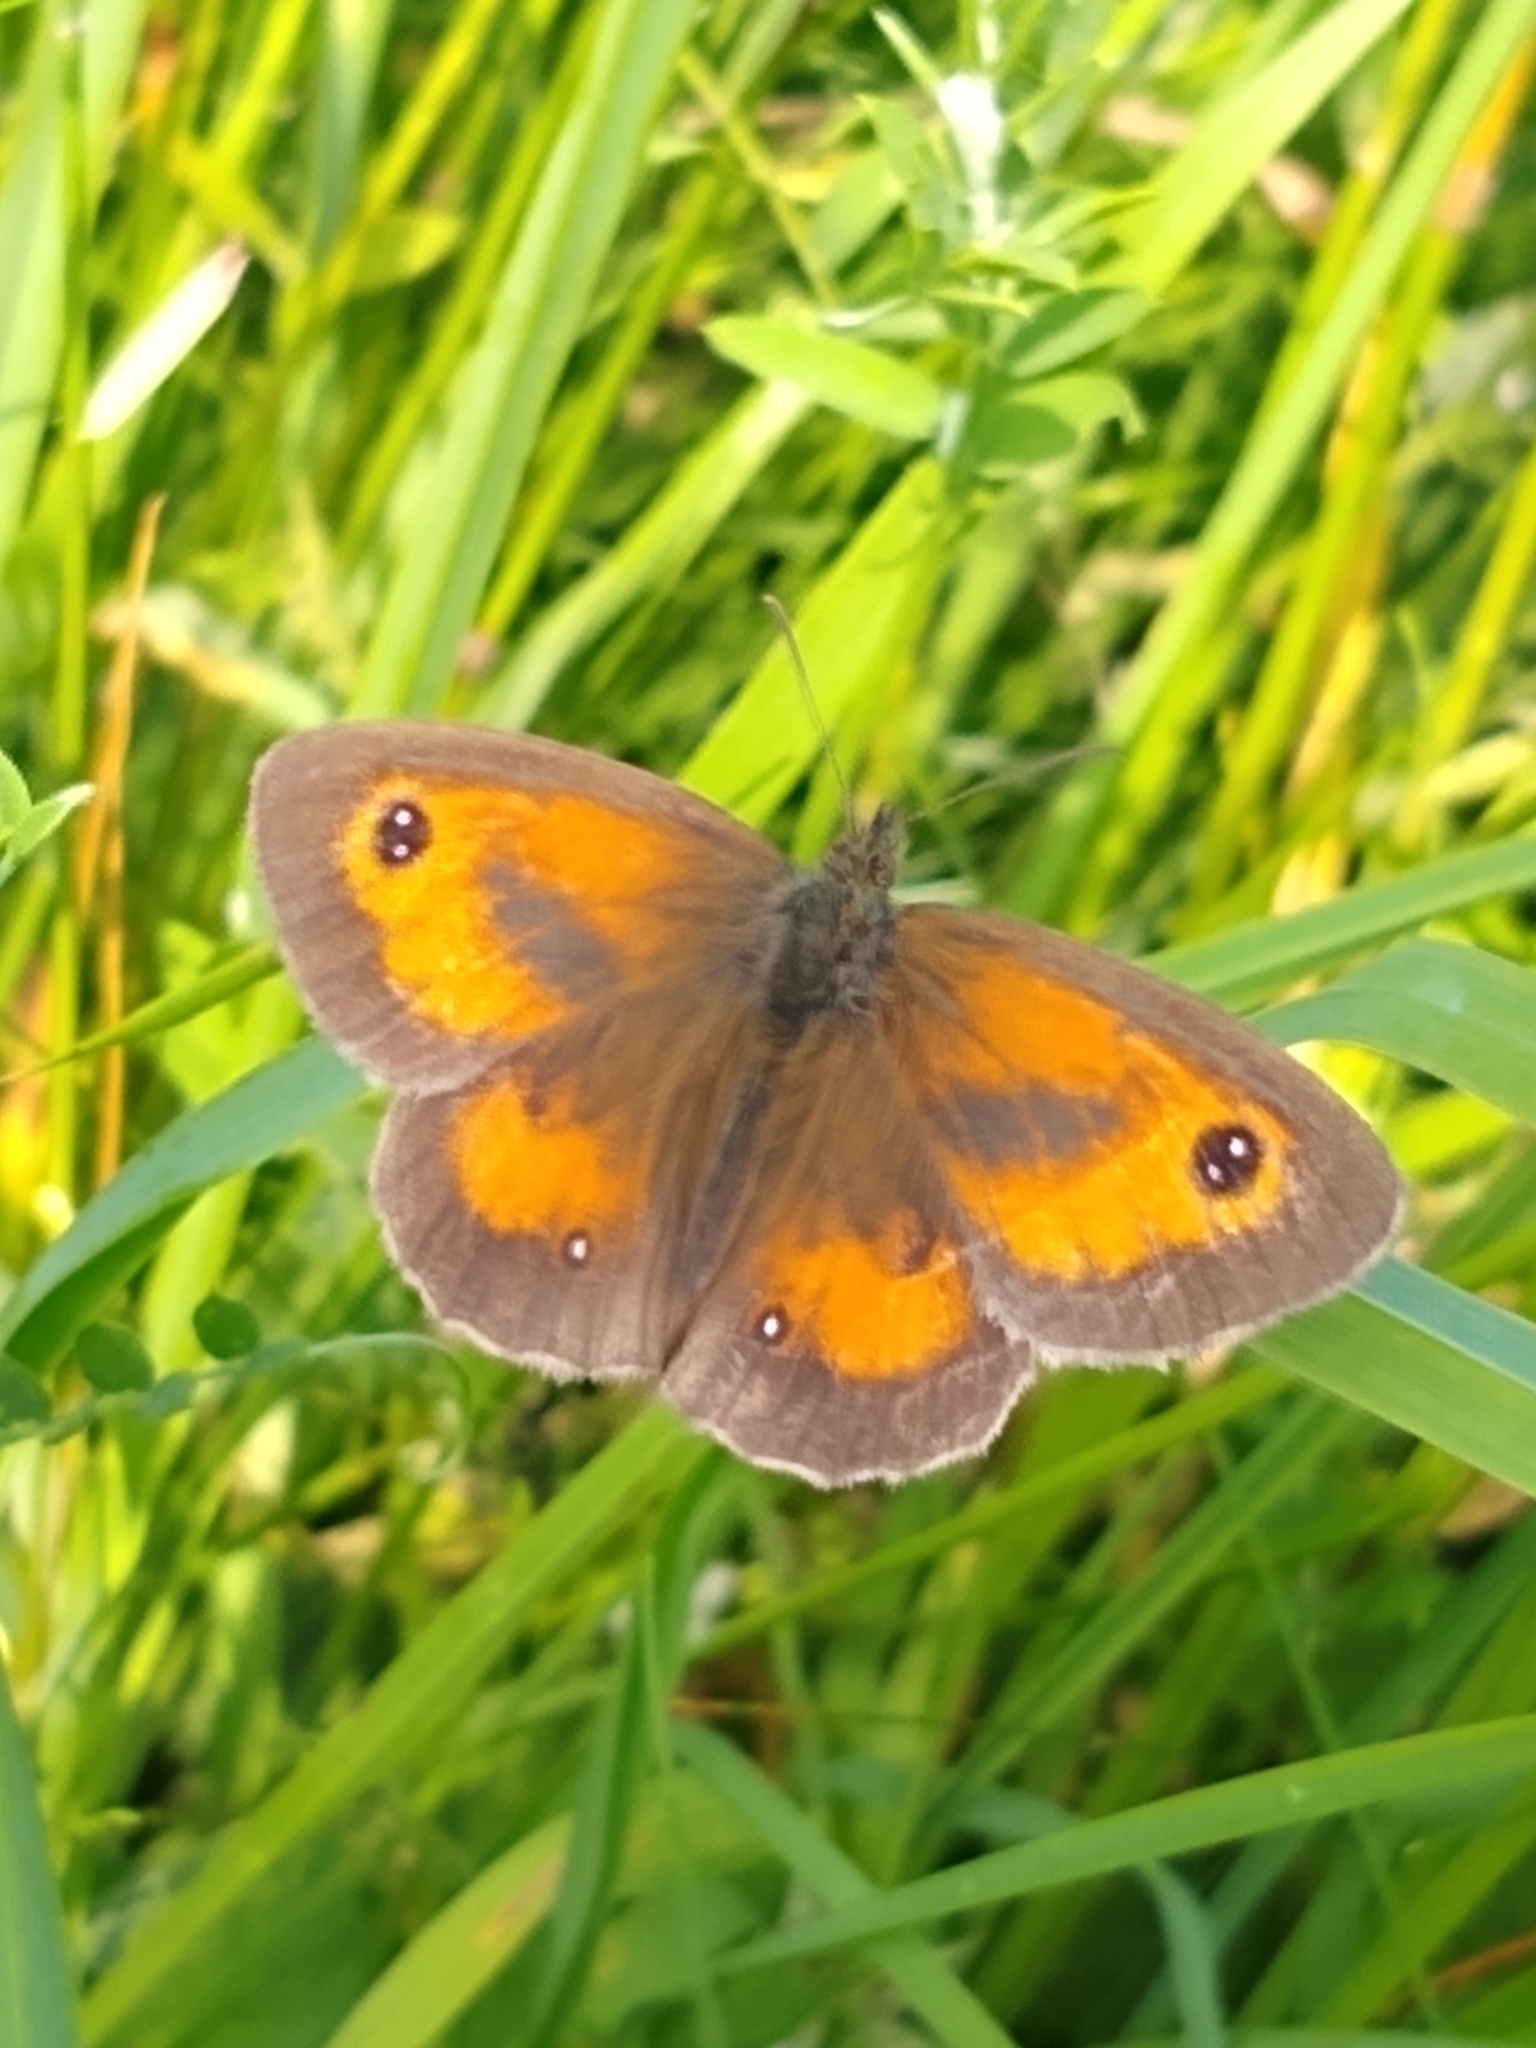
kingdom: Animalia
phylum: Arthropoda
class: Insecta
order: Lepidoptera
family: Nymphalidae
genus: Pyronia
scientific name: Pyronia tithonus
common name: Gatekeeper
